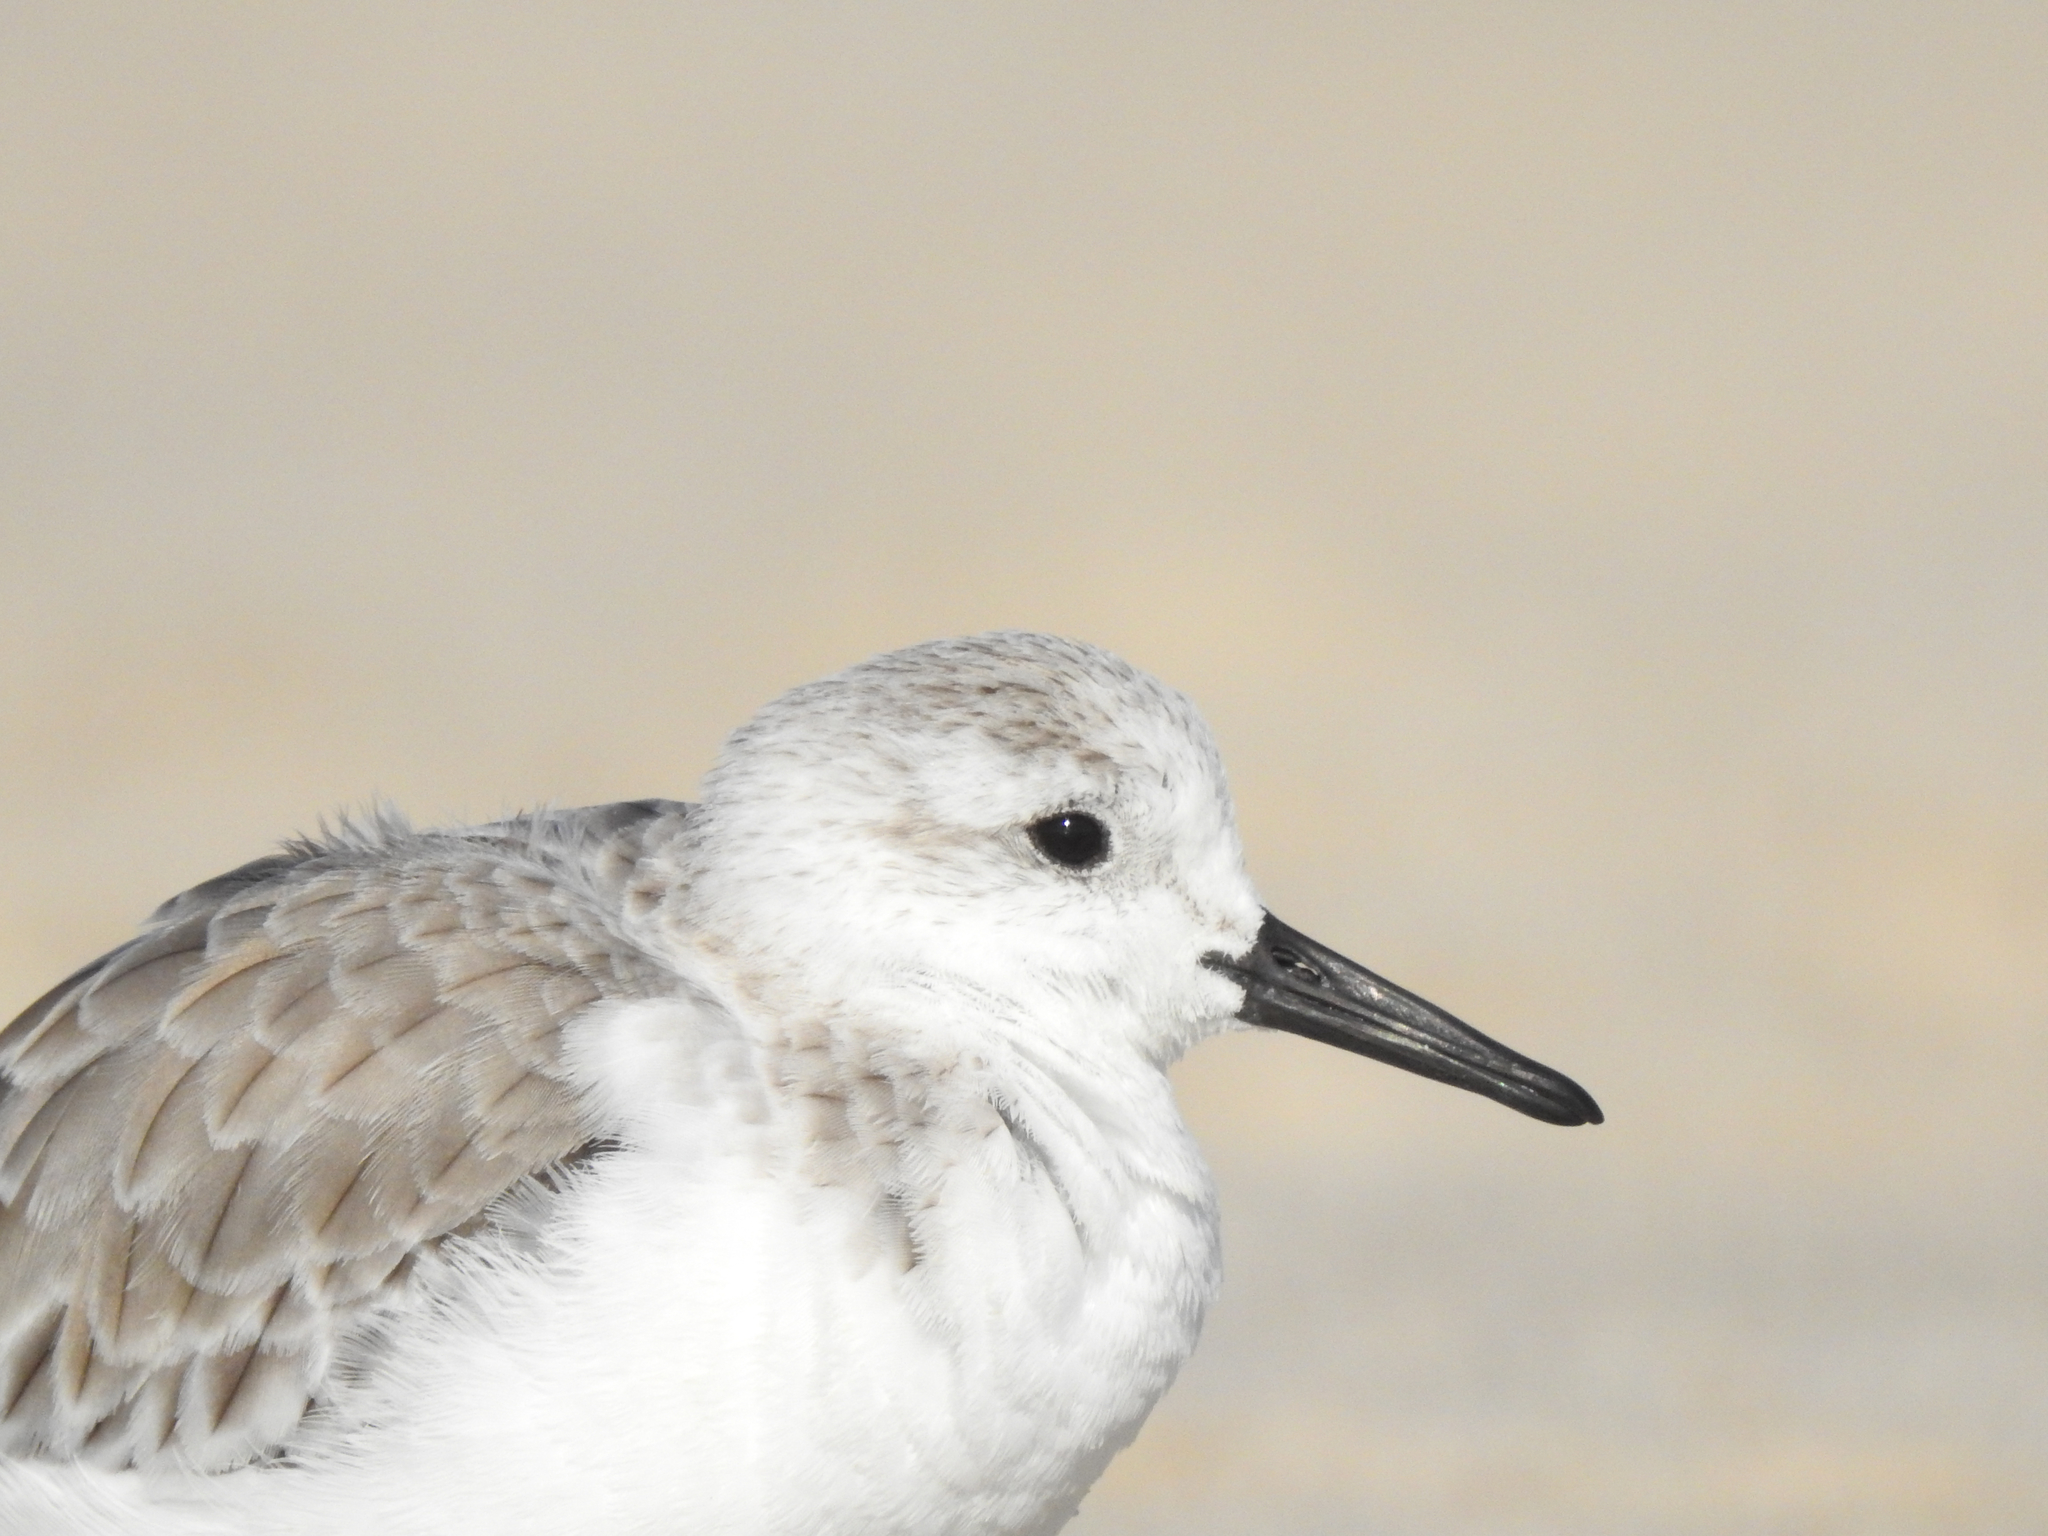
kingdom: Animalia
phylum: Chordata
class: Aves
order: Charadriiformes
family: Scolopacidae
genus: Calidris
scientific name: Calidris alba
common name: Sanderling
